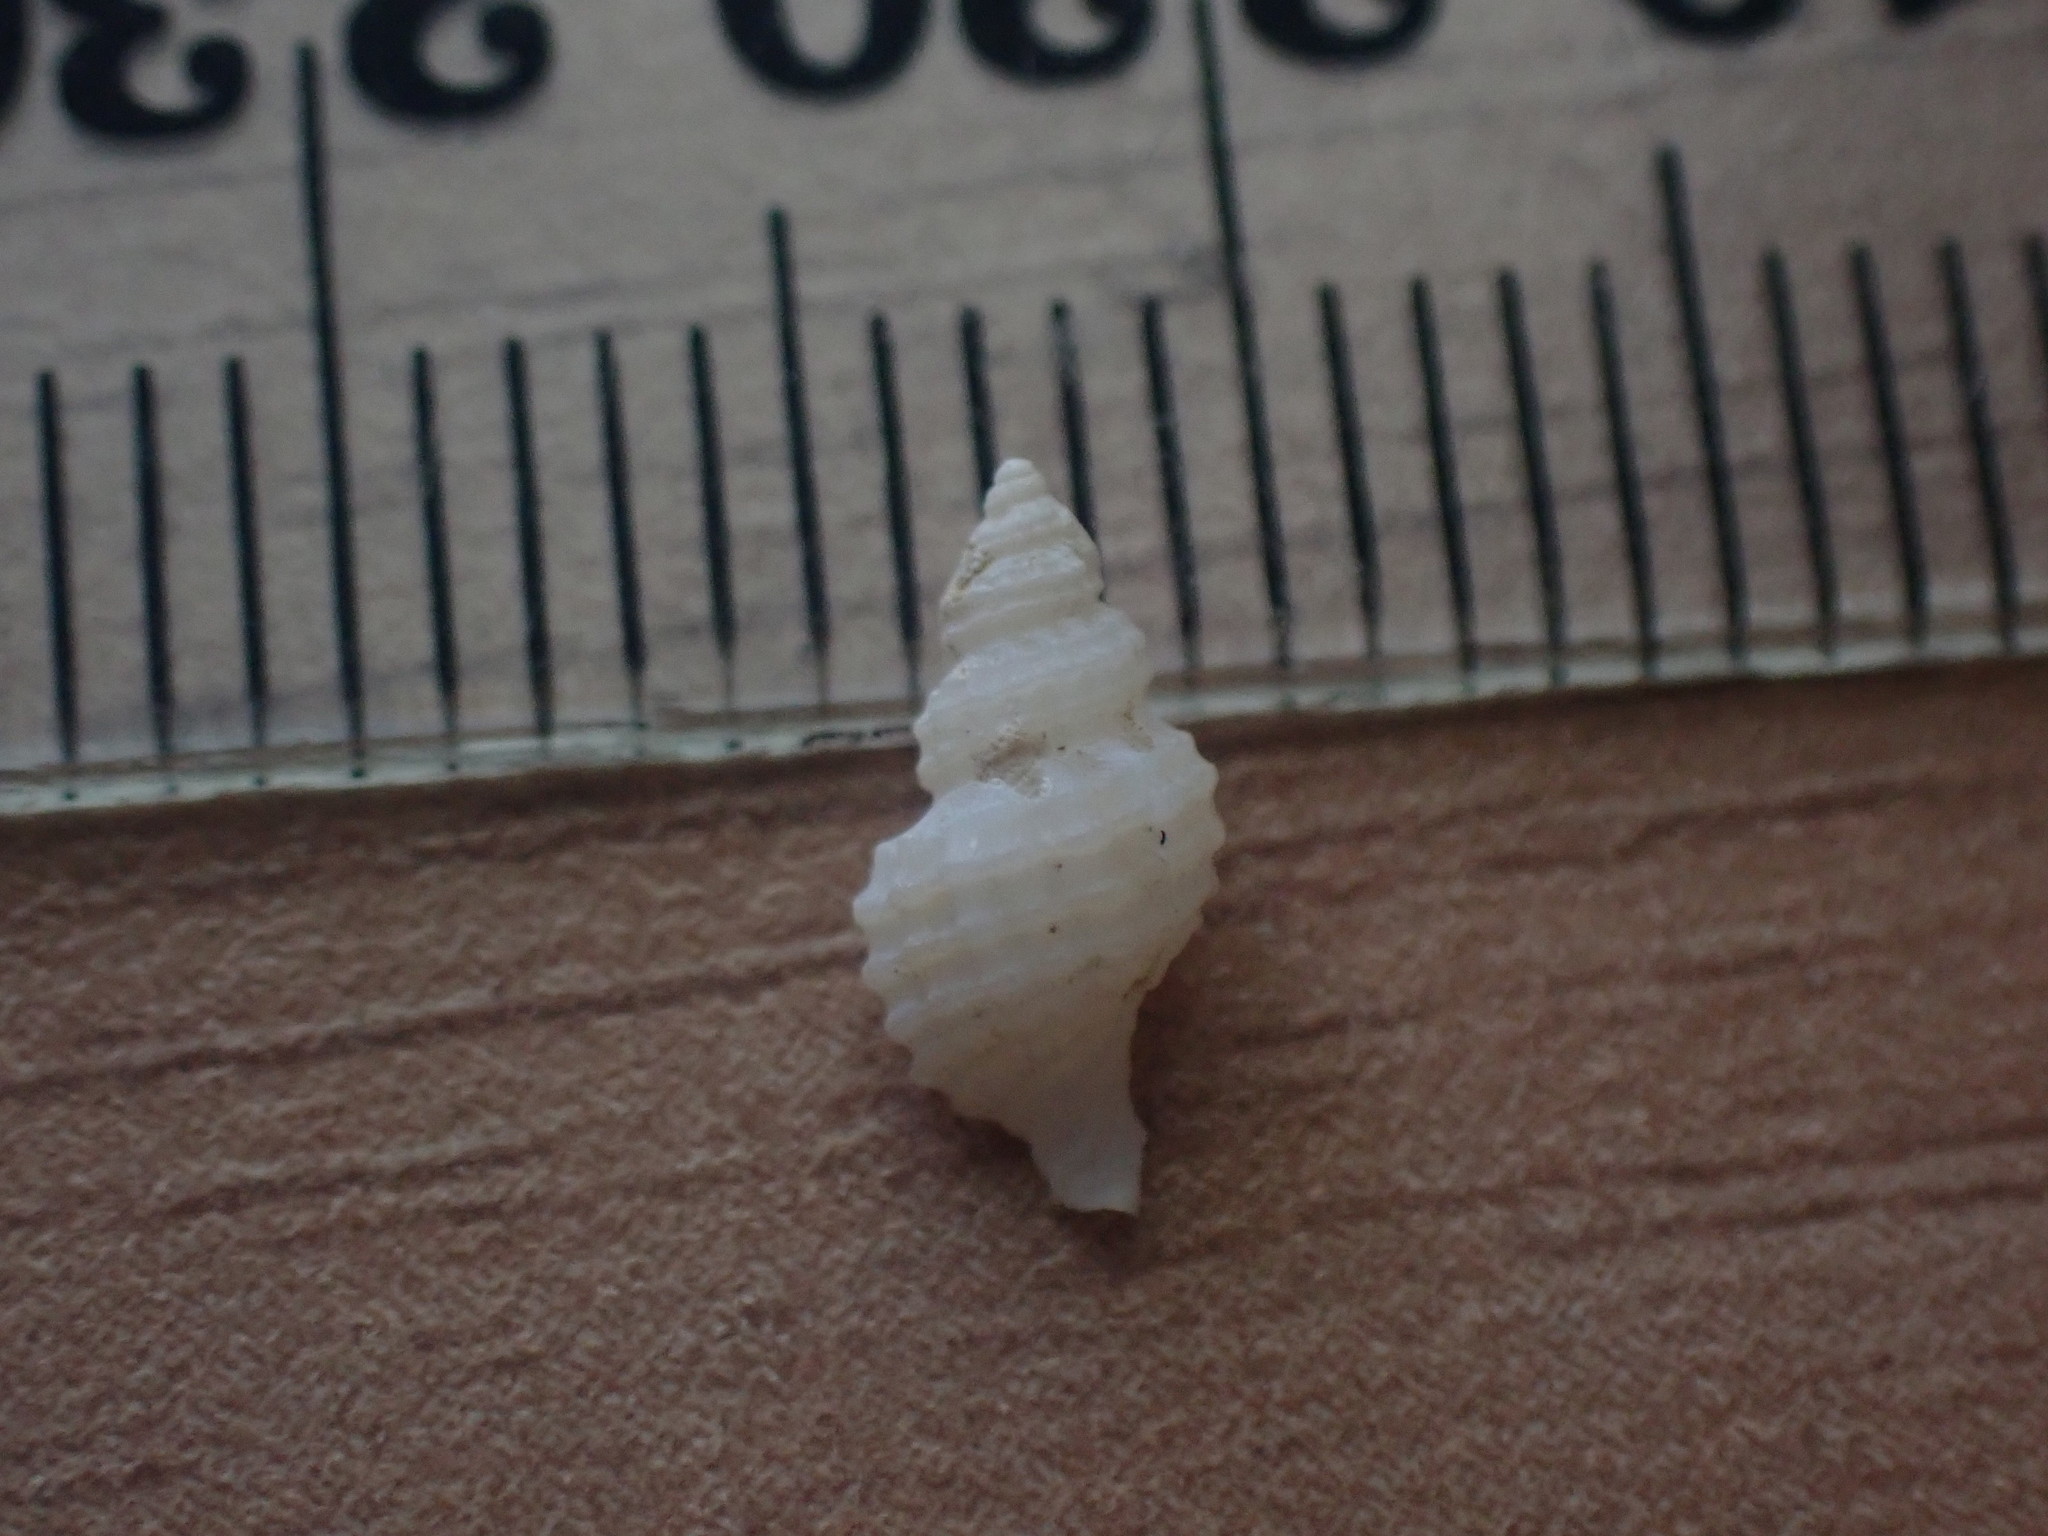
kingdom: Animalia
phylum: Mollusca
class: Gastropoda
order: Neogastropoda
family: Muricidae
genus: Xymenella
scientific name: Xymenella pusilla
